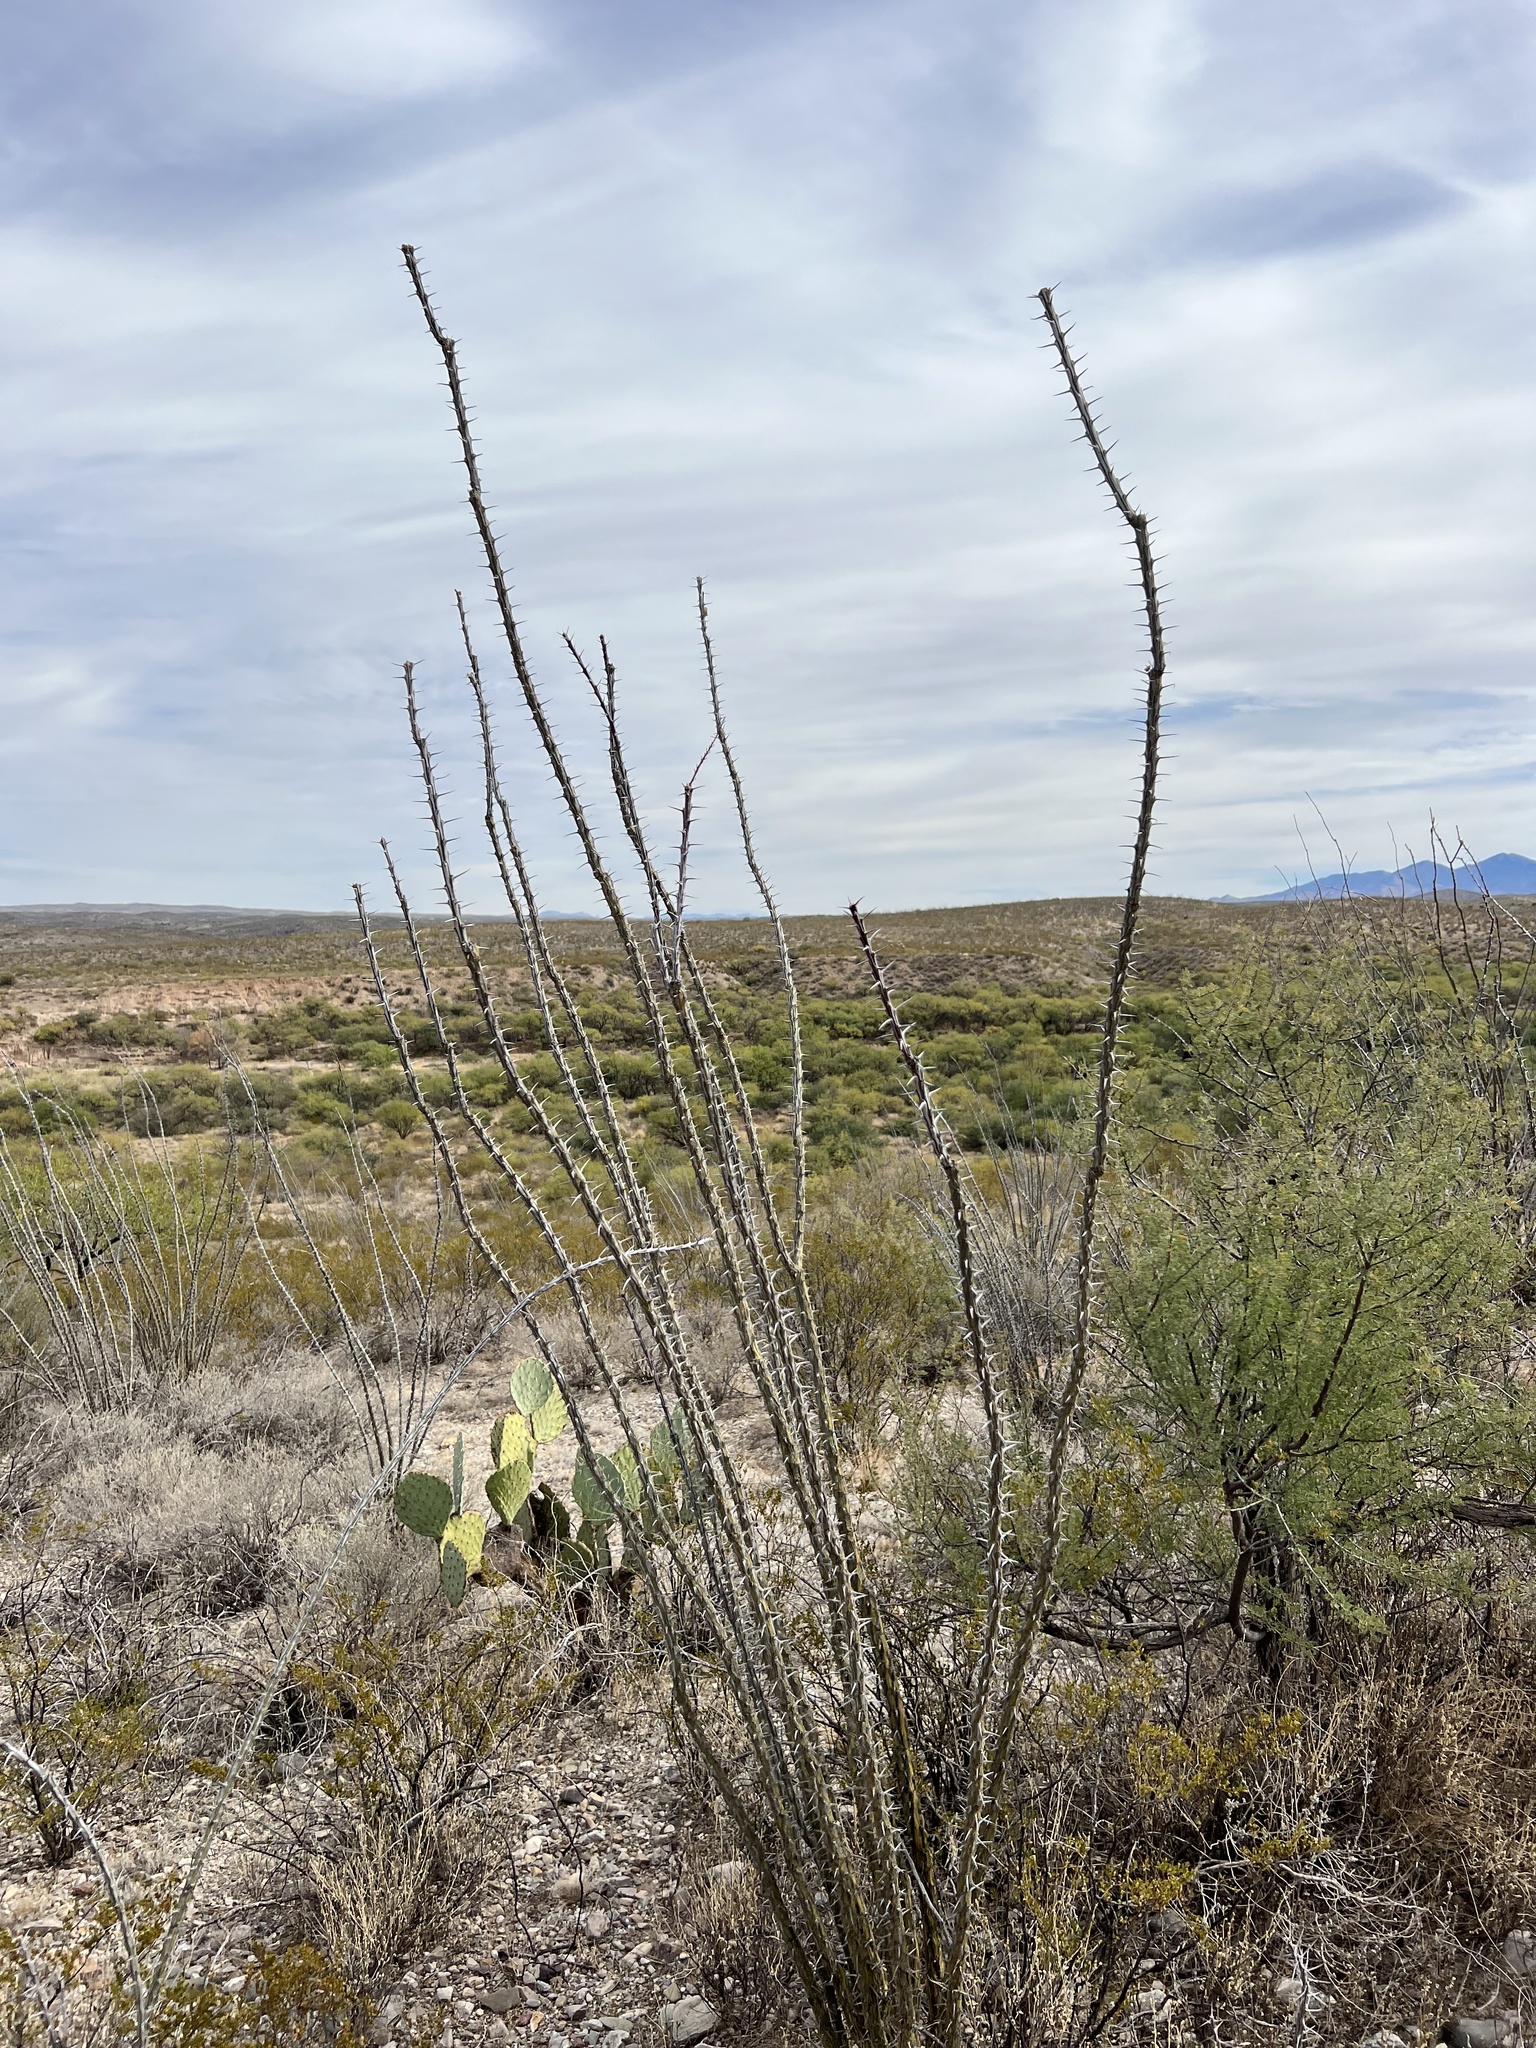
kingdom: Plantae
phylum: Tracheophyta
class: Magnoliopsida
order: Ericales
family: Fouquieriaceae
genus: Fouquieria
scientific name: Fouquieria splendens
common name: Vine-cactus
